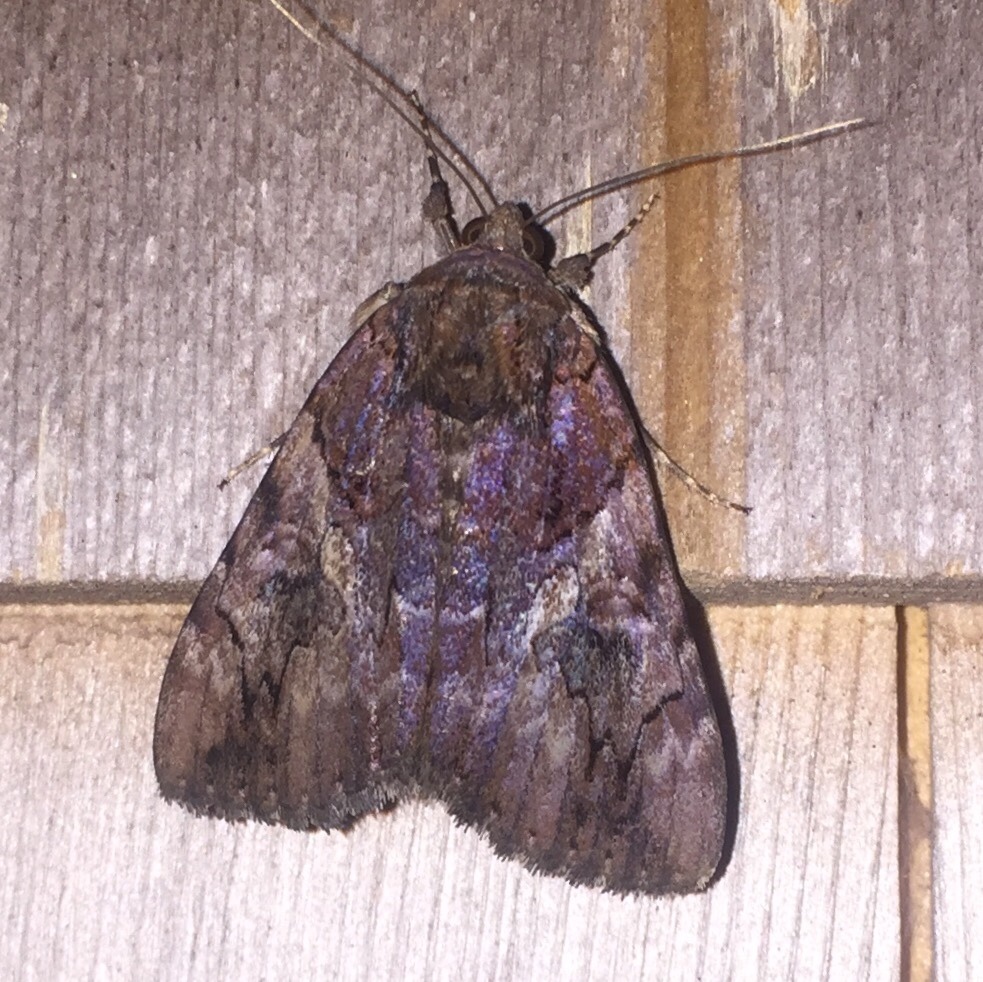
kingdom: Animalia
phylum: Arthropoda
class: Insecta
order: Lepidoptera
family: Erebidae
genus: Catocala
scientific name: Catocala muliercula
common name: The little wife underwing
